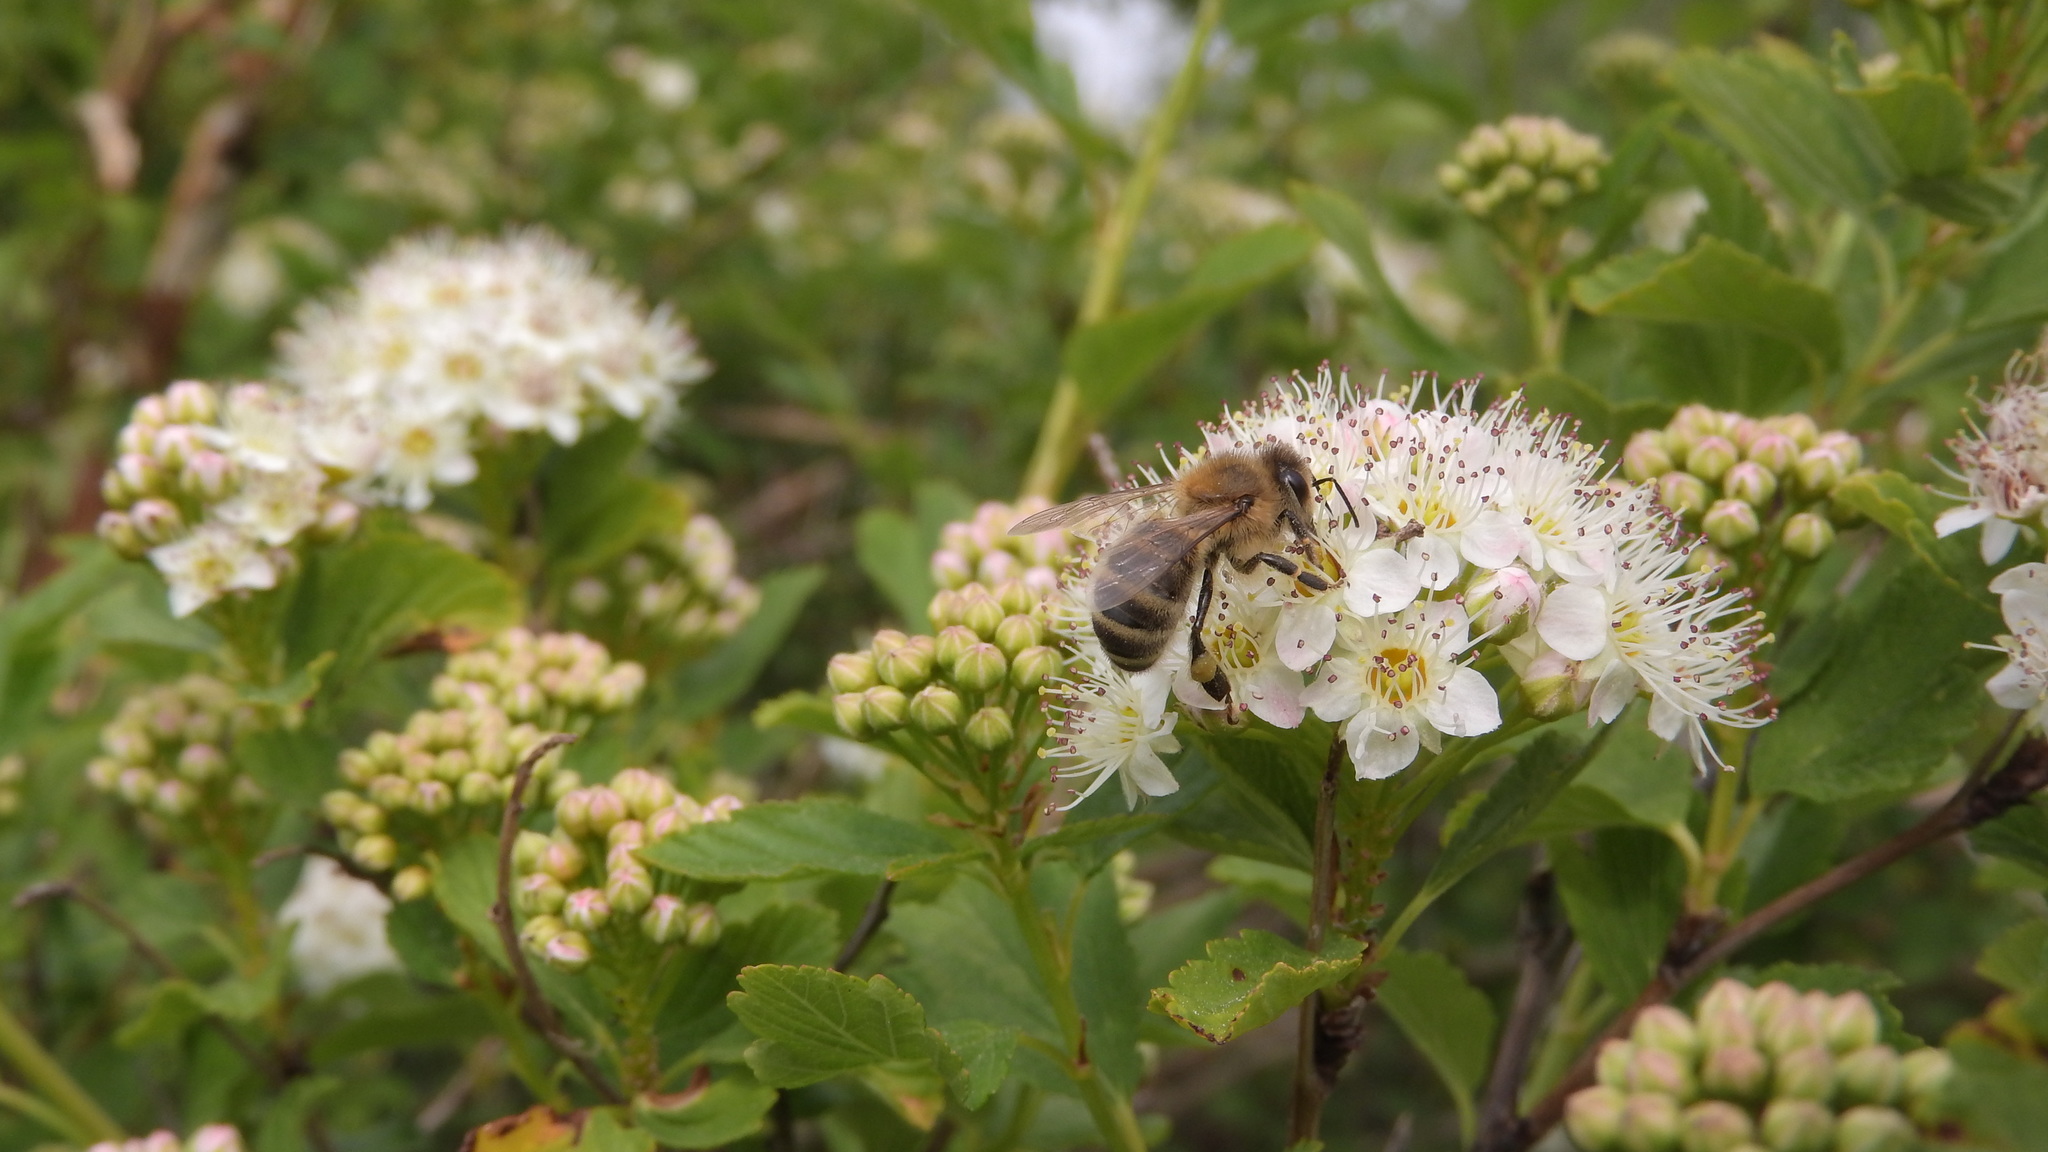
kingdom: Animalia
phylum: Arthropoda
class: Insecta
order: Hymenoptera
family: Apidae
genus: Apis
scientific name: Apis mellifera
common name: Honey bee
